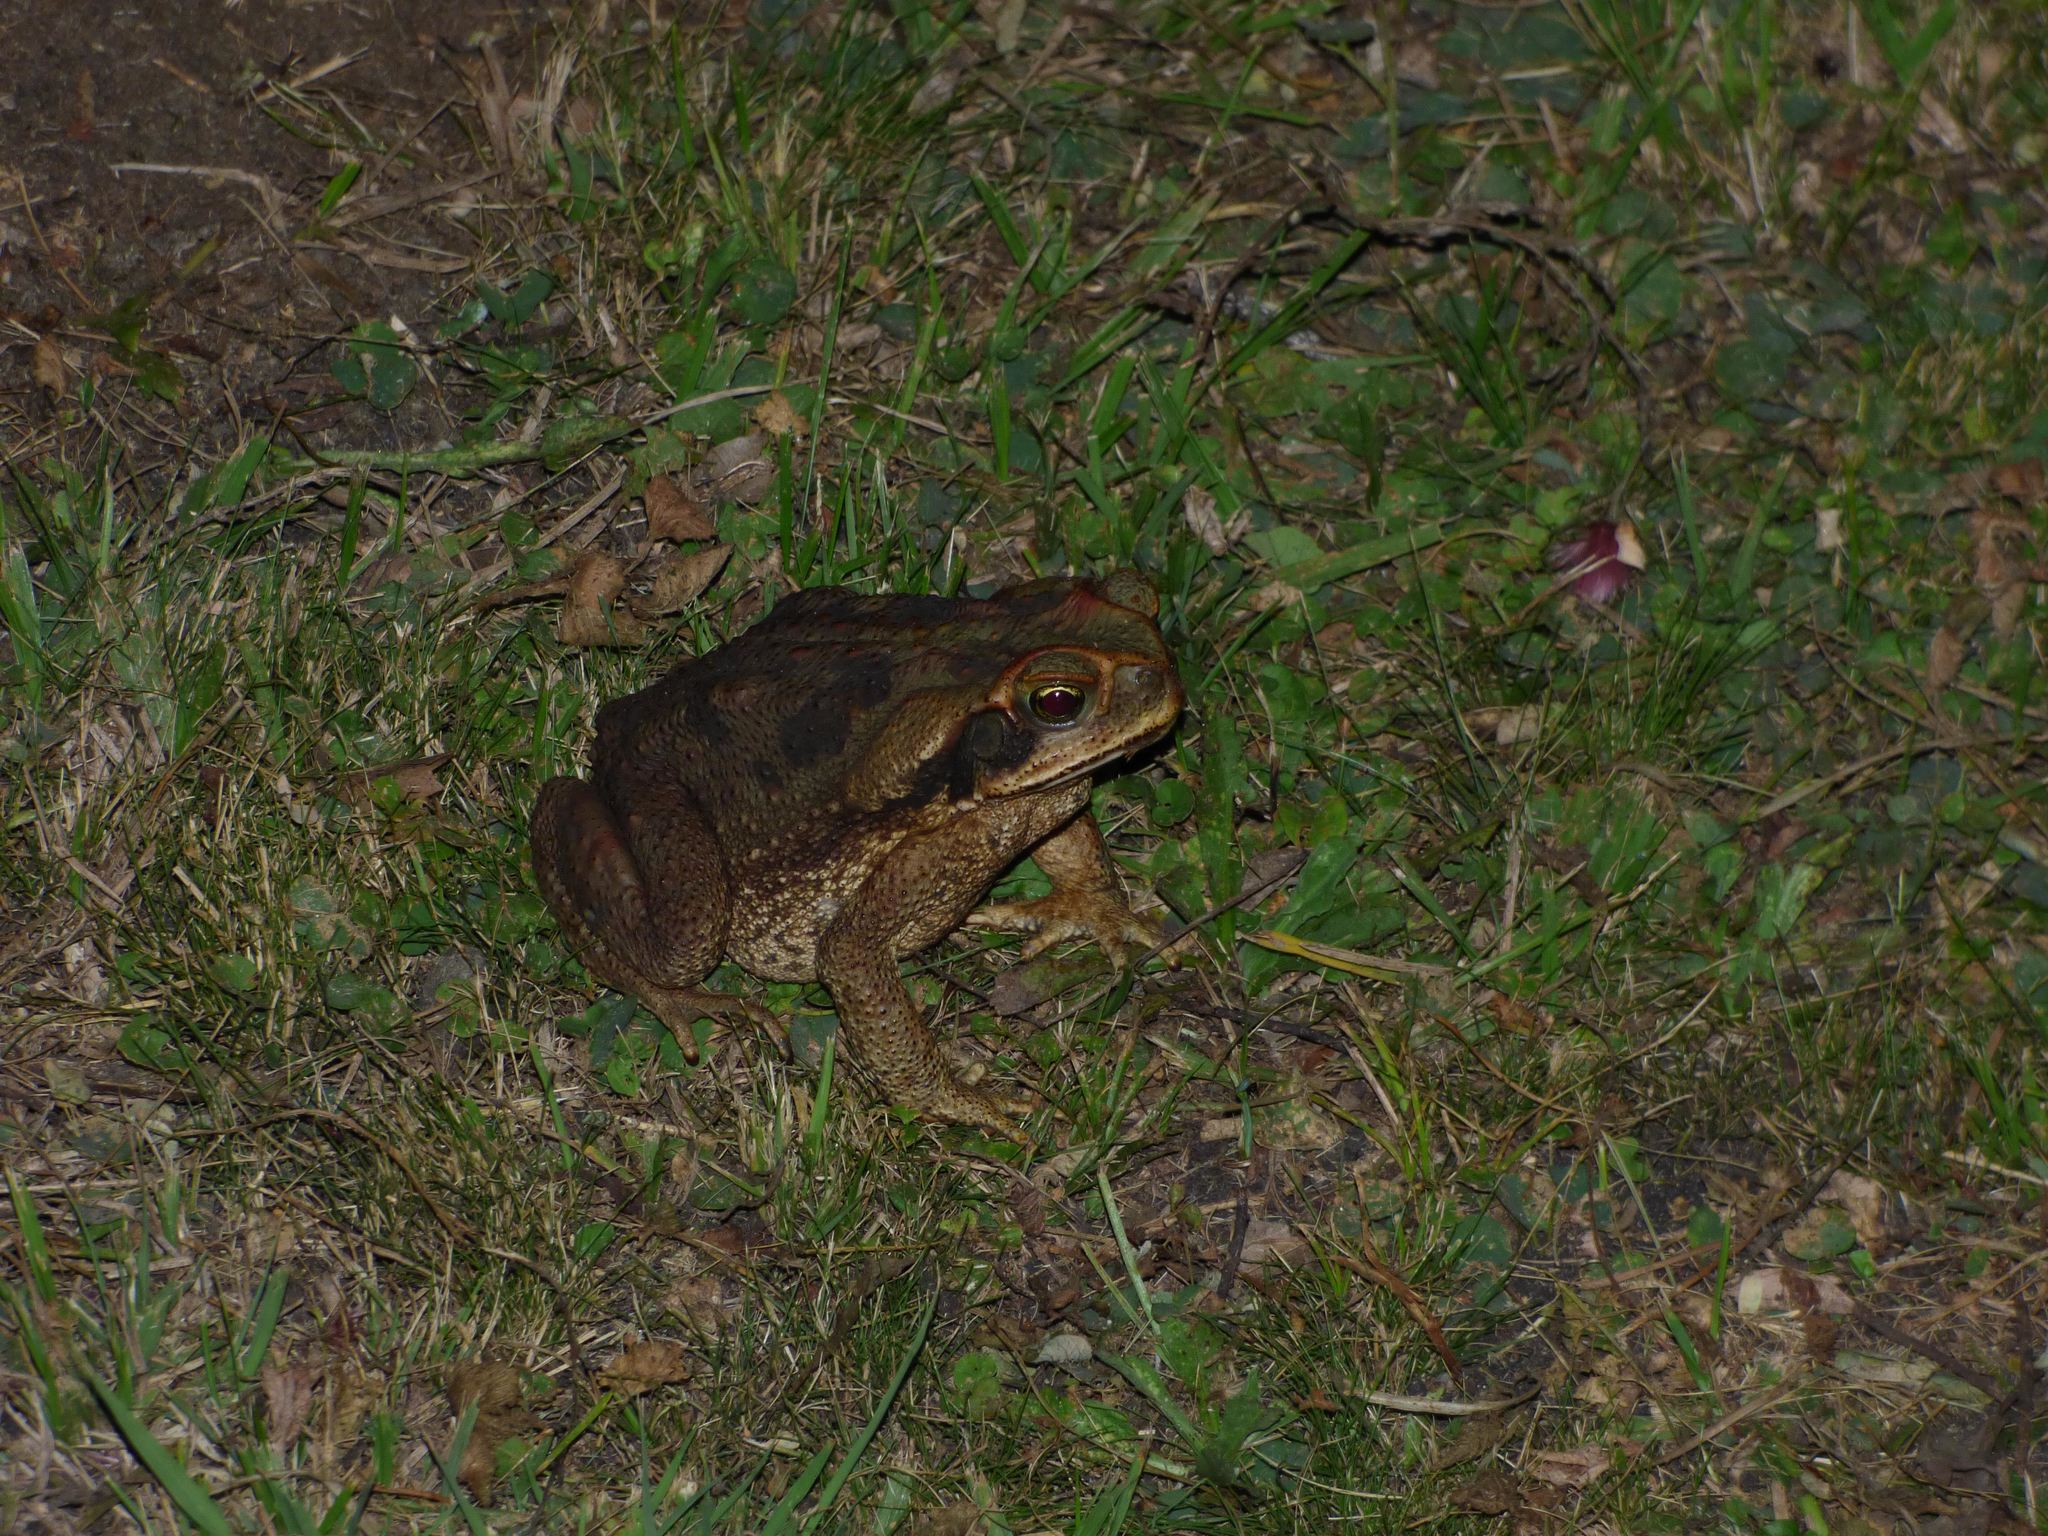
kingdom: Animalia
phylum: Chordata
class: Amphibia
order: Anura
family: Bufonidae
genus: Rhinella
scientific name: Rhinella diptycha
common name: Cope's toad
